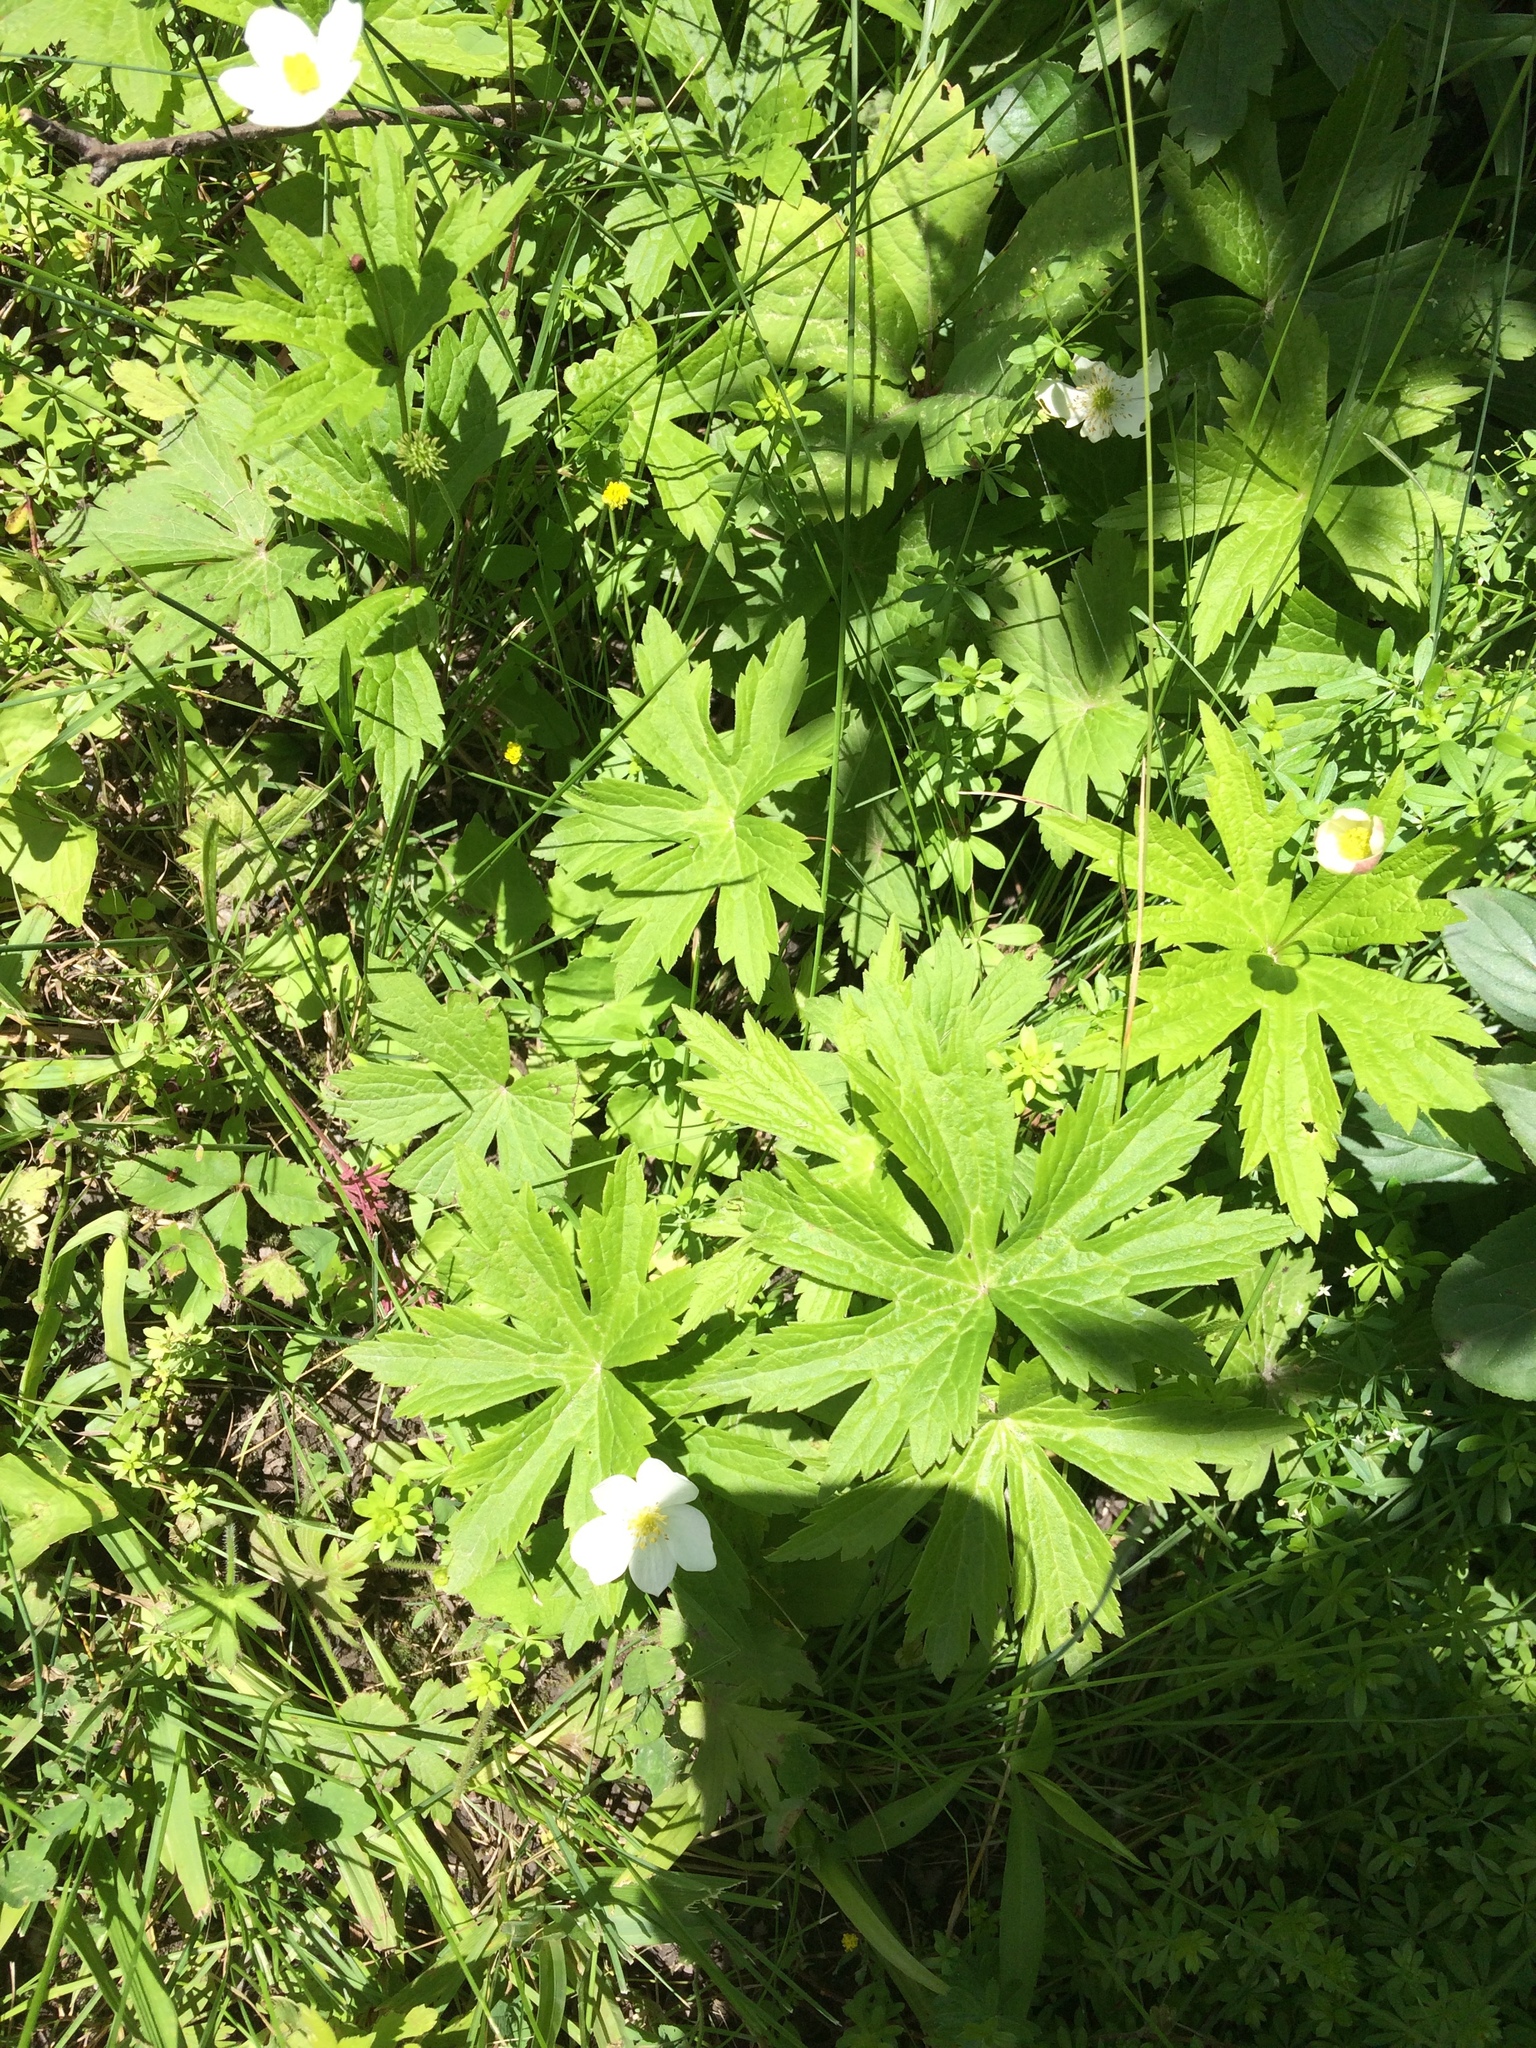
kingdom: Plantae
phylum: Tracheophyta
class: Magnoliopsida
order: Ranunculales
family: Ranunculaceae
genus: Anemonastrum
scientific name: Anemonastrum canadense
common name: Canada anemone
